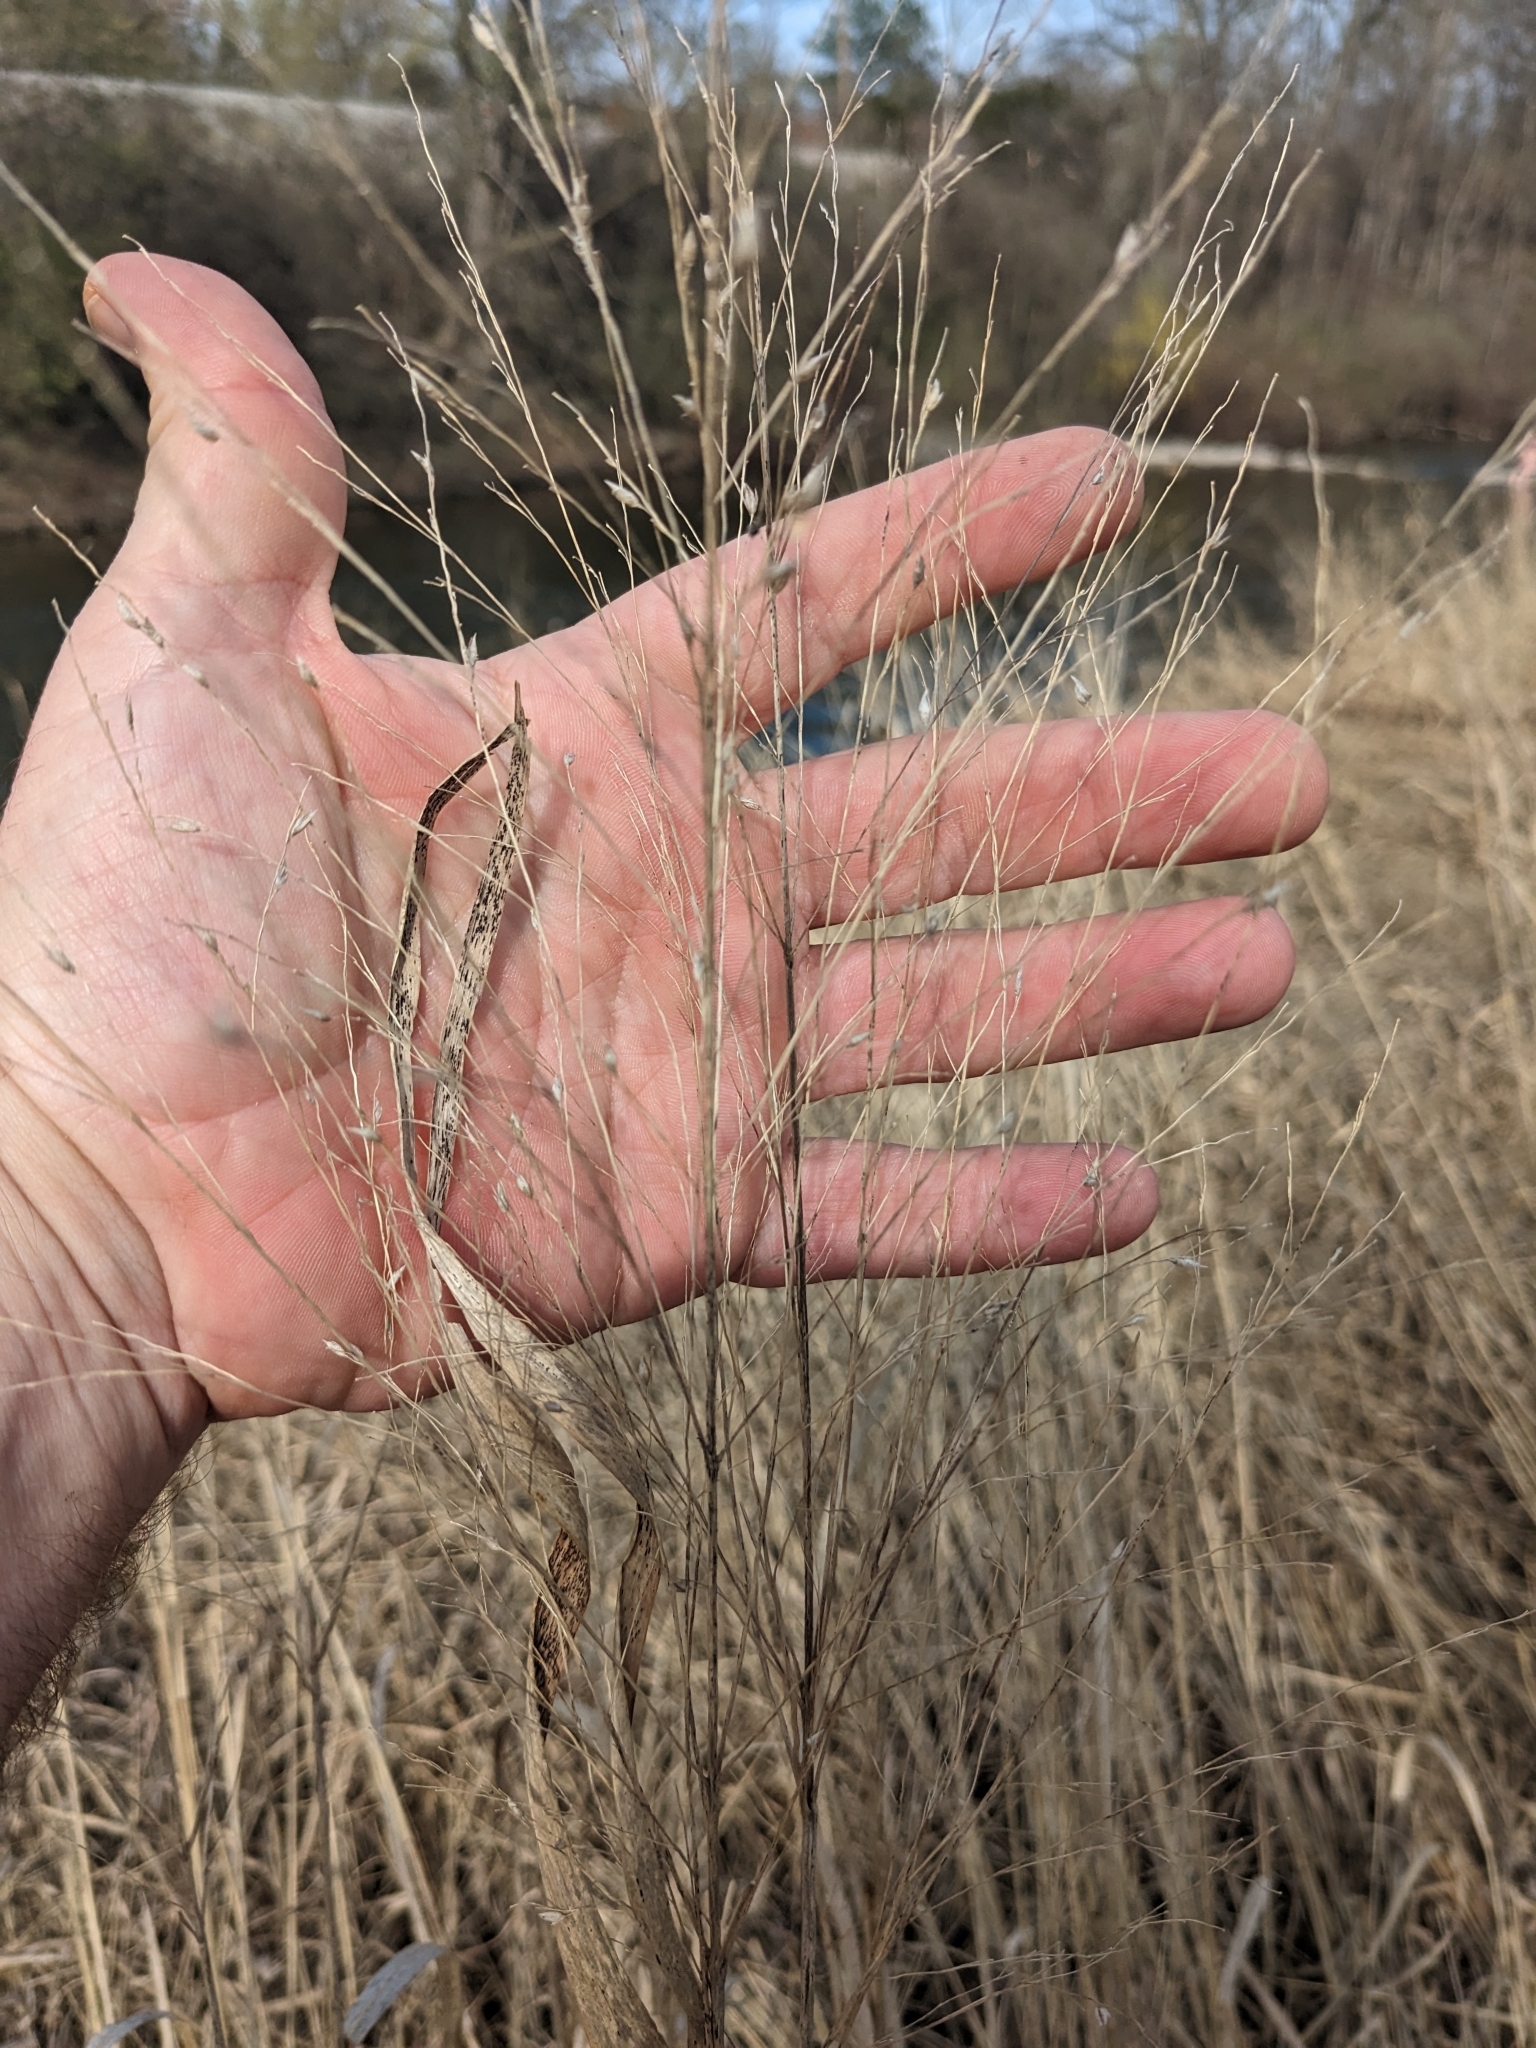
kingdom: Plantae
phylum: Tracheophyta
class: Liliopsida
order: Poales
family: Poaceae
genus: Panicum
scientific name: Panicum virgatum
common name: Switchgrass
